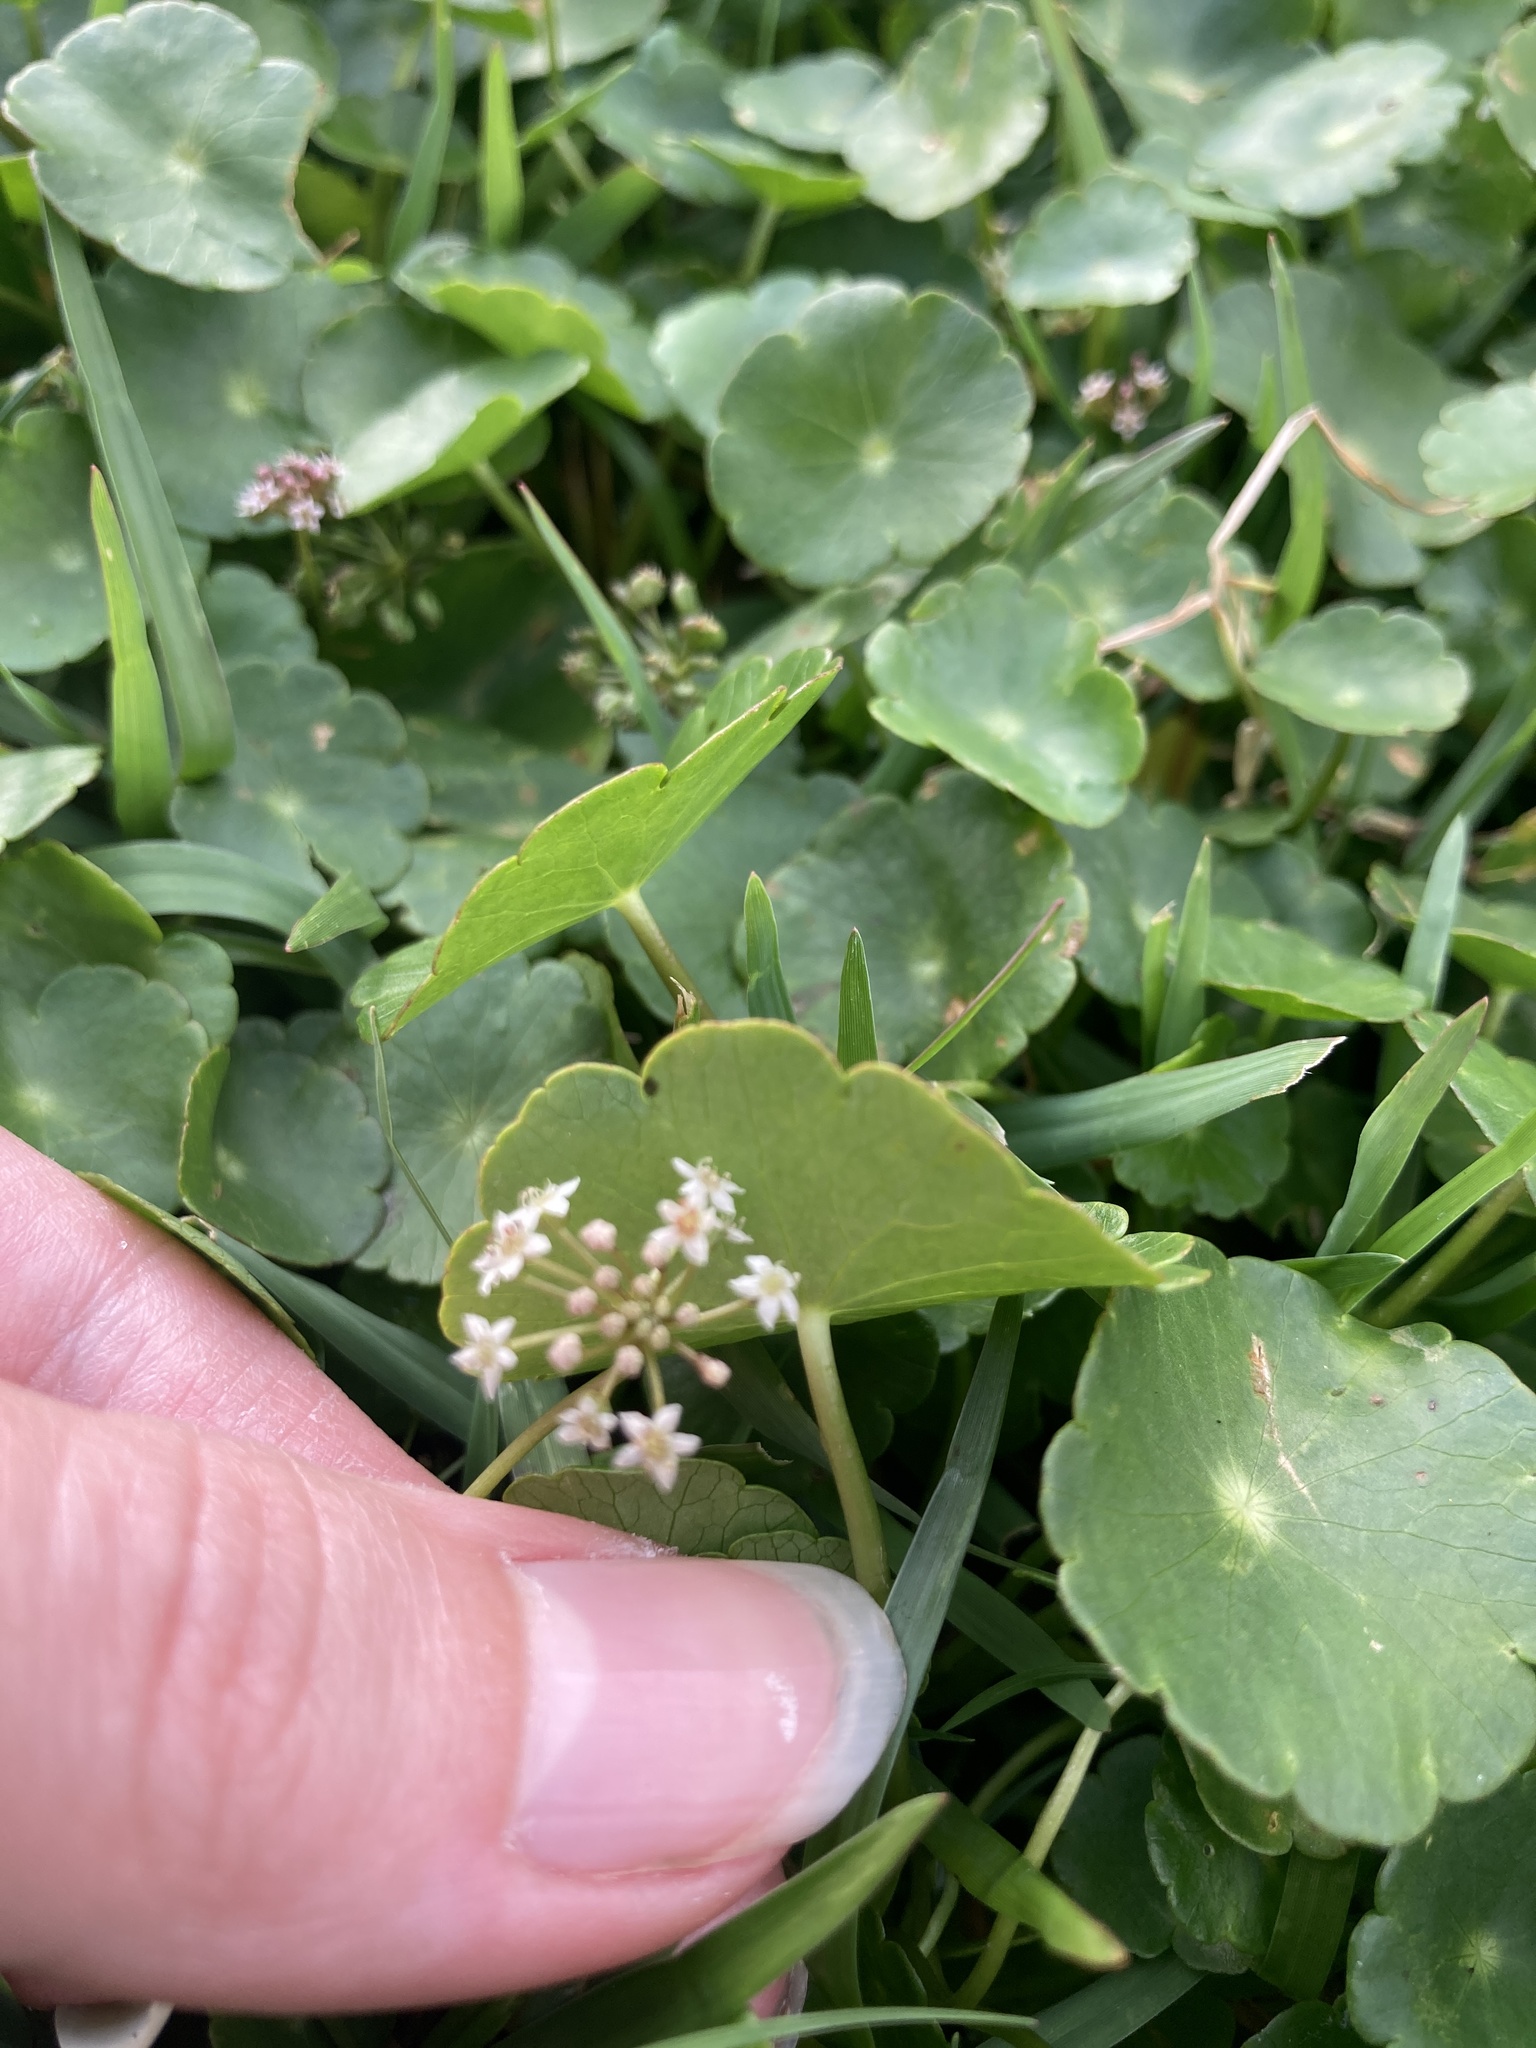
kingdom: Plantae
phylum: Tracheophyta
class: Magnoliopsida
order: Apiales
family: Araliaceae
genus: Hydrocotyle
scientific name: Hydrocotyle umbellata
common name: Water pennywort
